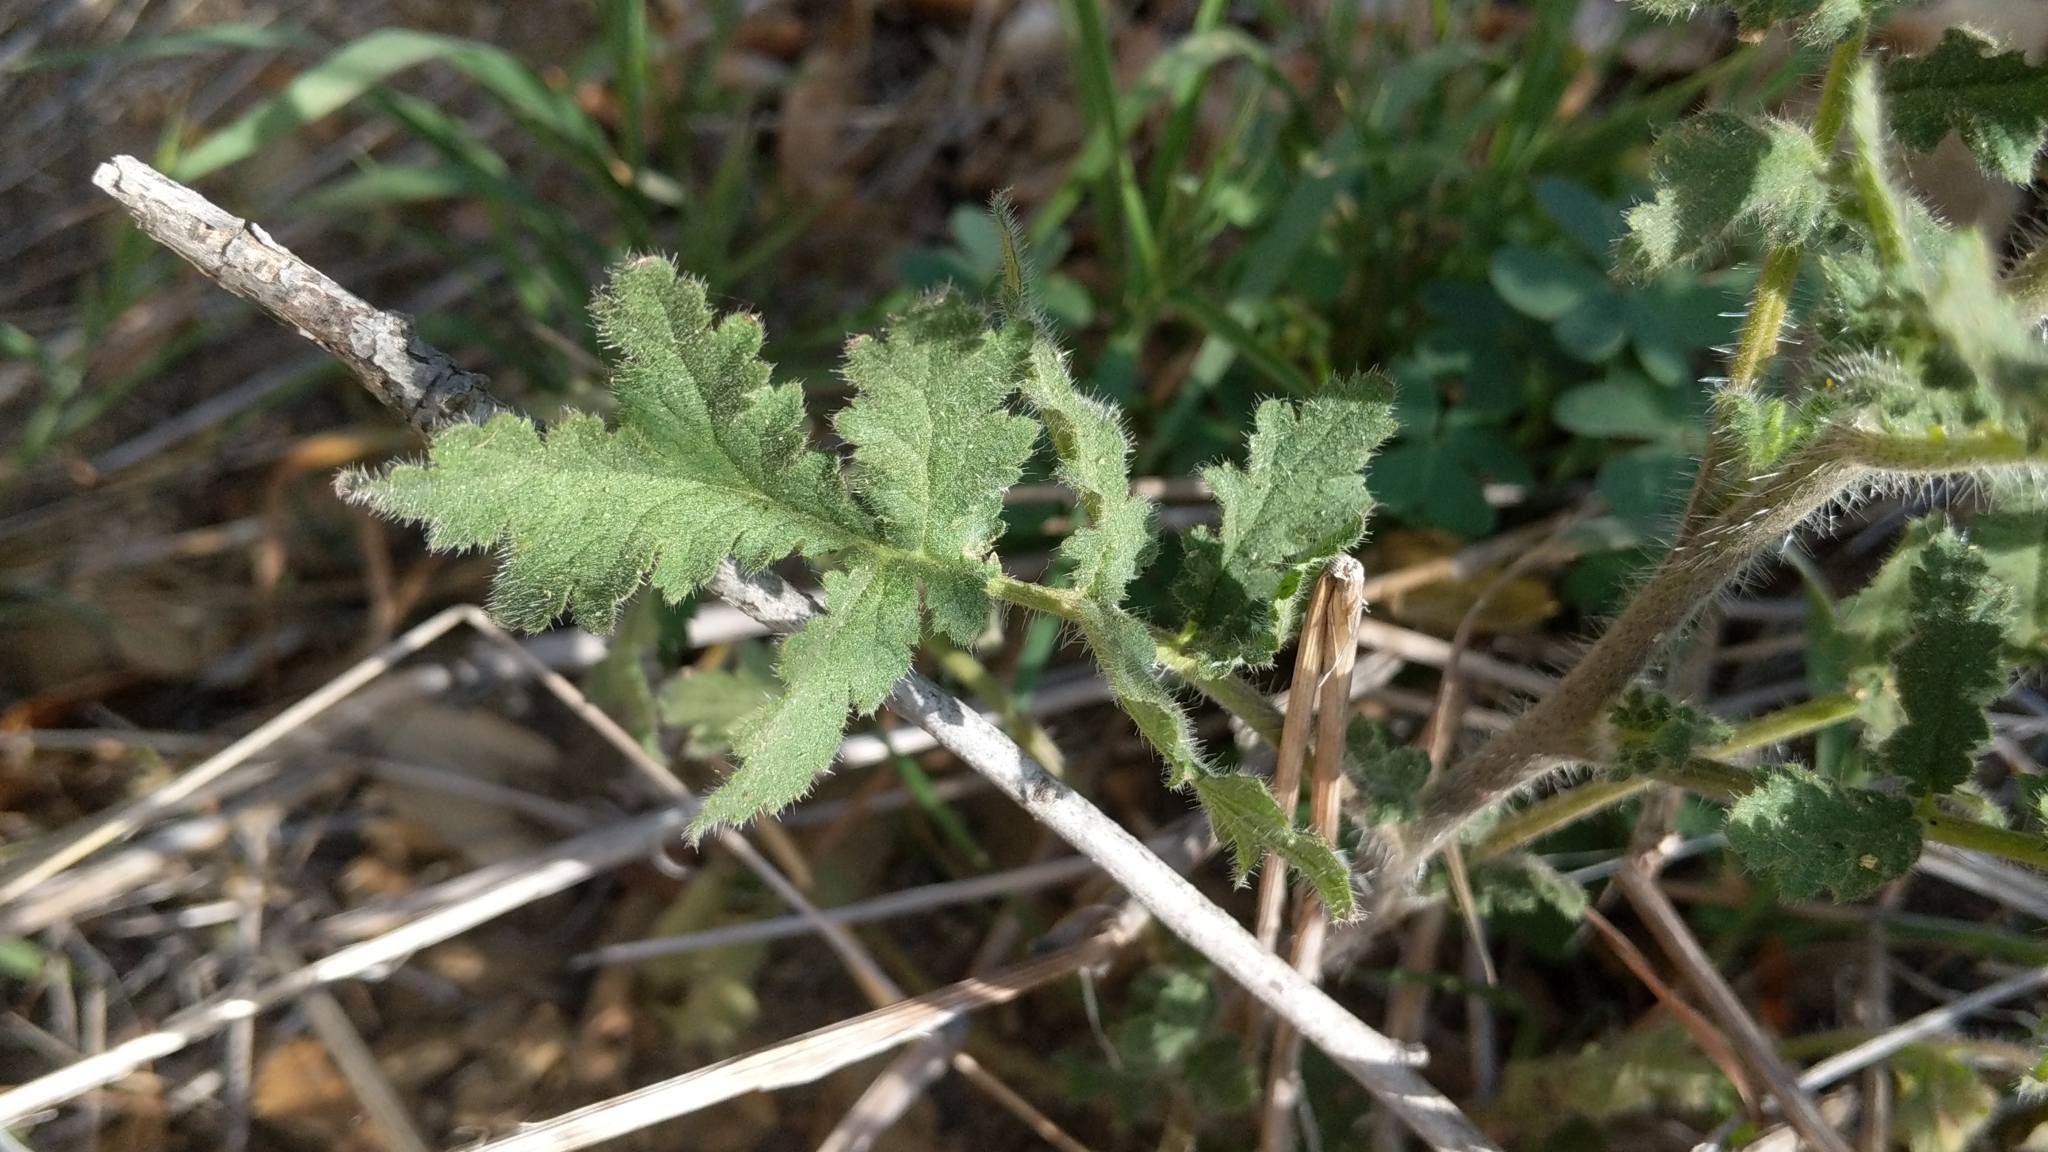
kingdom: Plantae
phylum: Tracheophyta
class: Magnoliopsida
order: Boraginales
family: Hydrophyllaceae
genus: Phacelia
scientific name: Phacelia cicutaria
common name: Caterpillar phacelia
